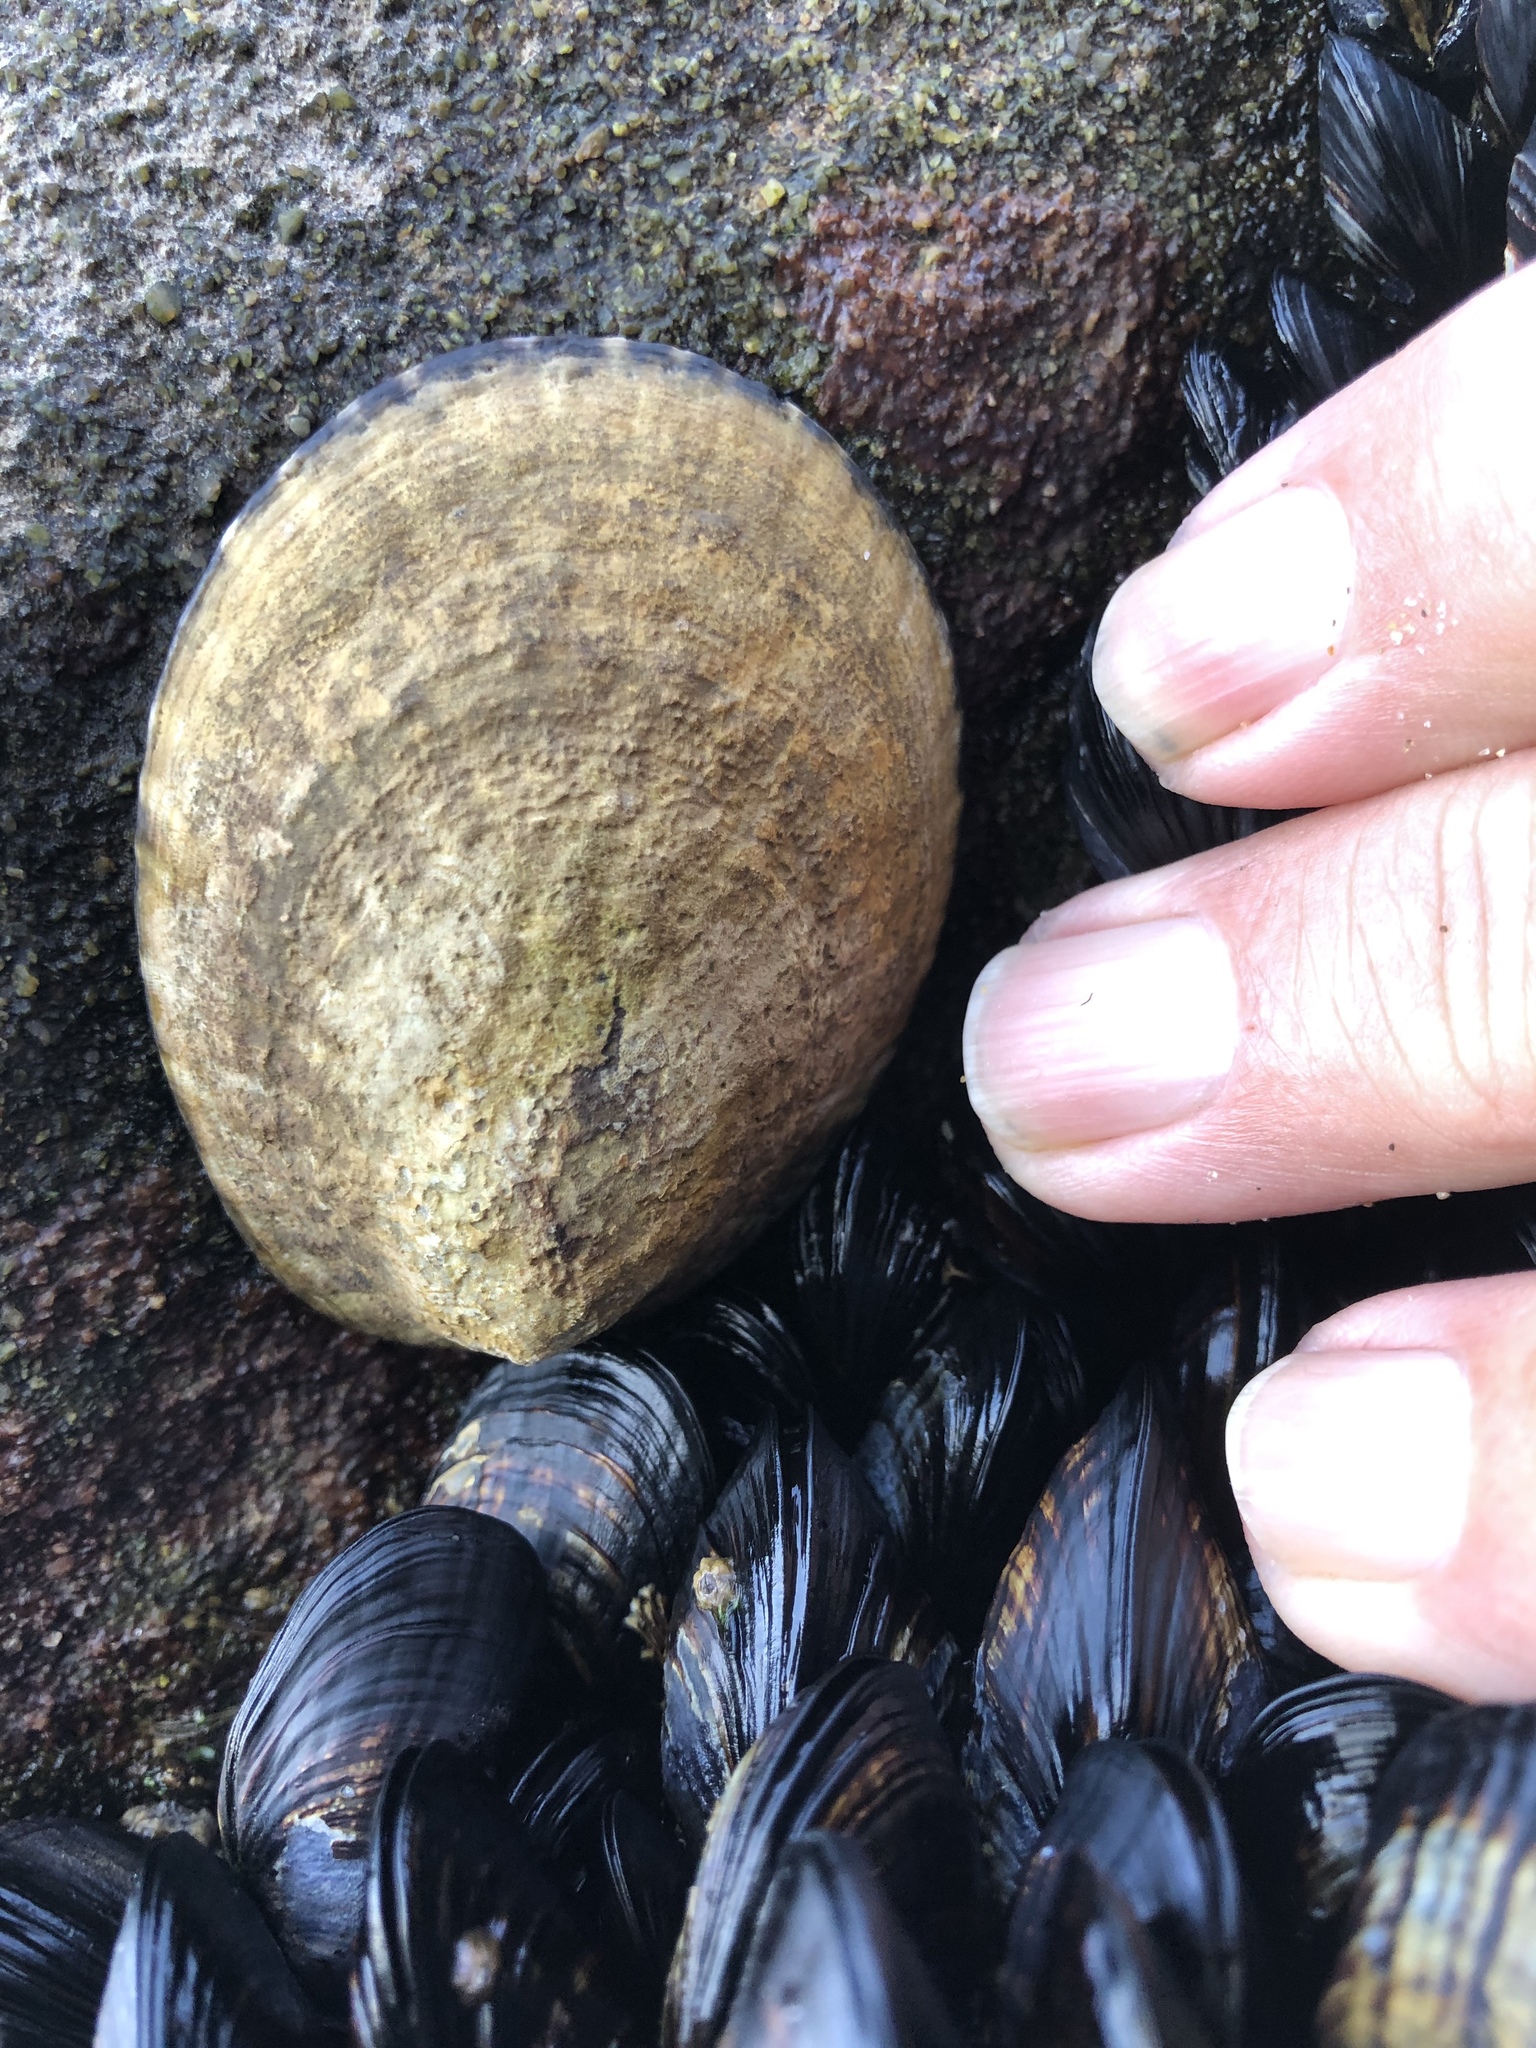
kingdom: Animalia
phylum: Mollusca
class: Gastropoda
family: Lottiidae
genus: Lottia
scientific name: Lottia gigantea
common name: Owl limpet
